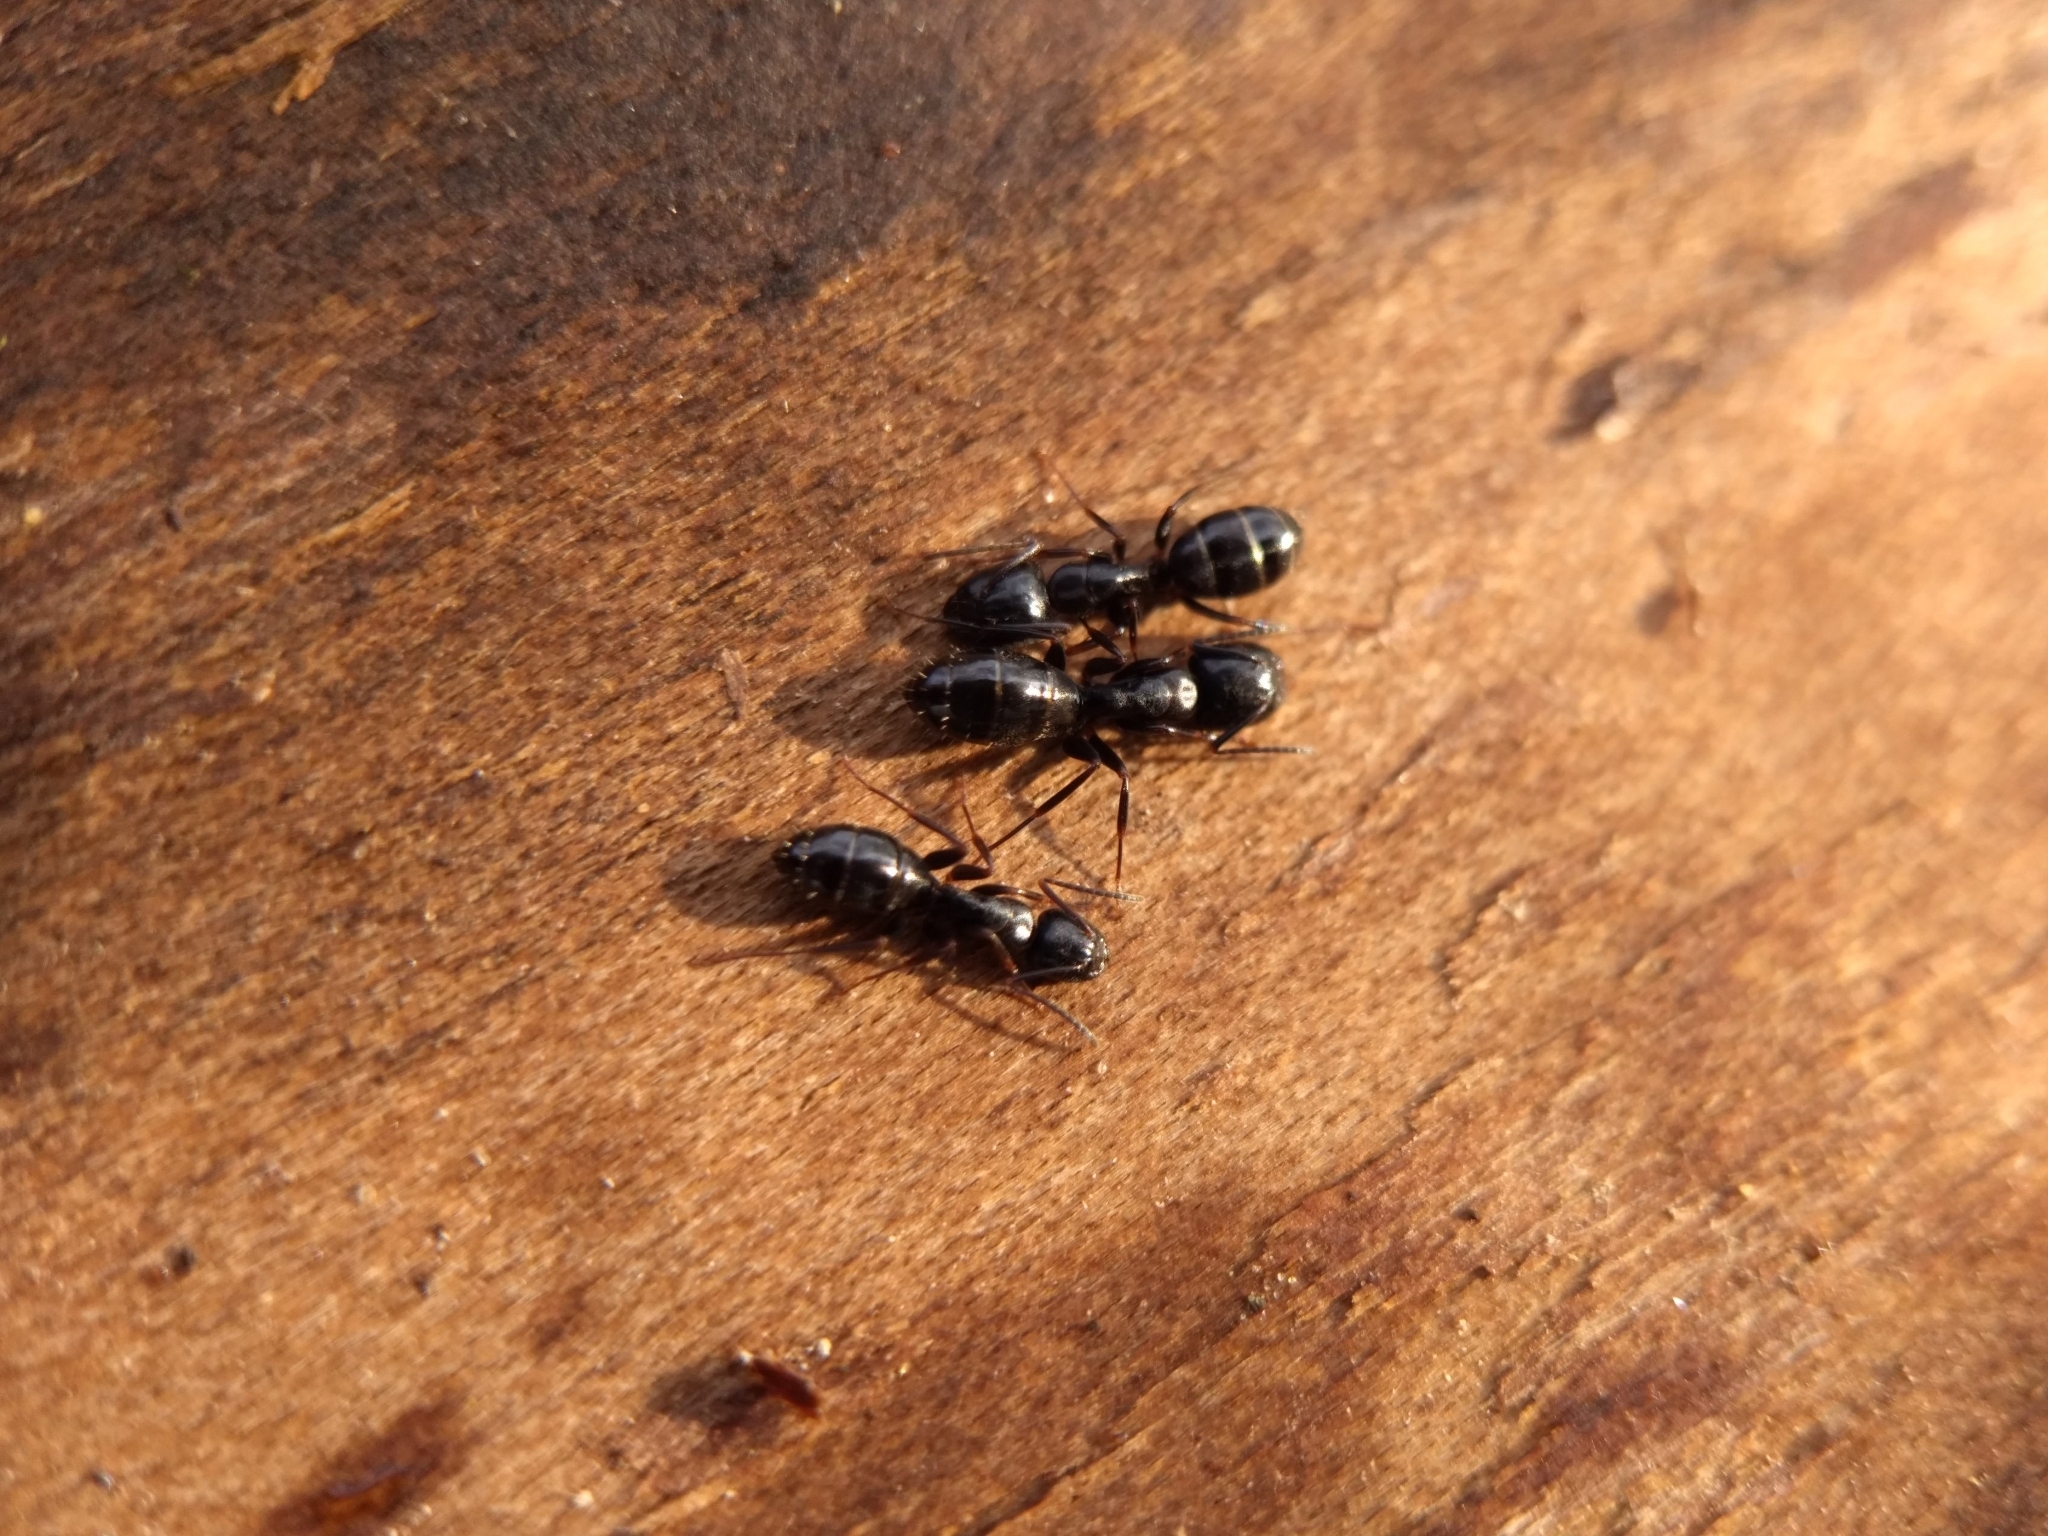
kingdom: Animalia
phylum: Arthropoda
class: Insecta
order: Hymenoptera
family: Formicidae
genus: Camponotus
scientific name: Camponotus nearcticus
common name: Smaller carpenter ant
